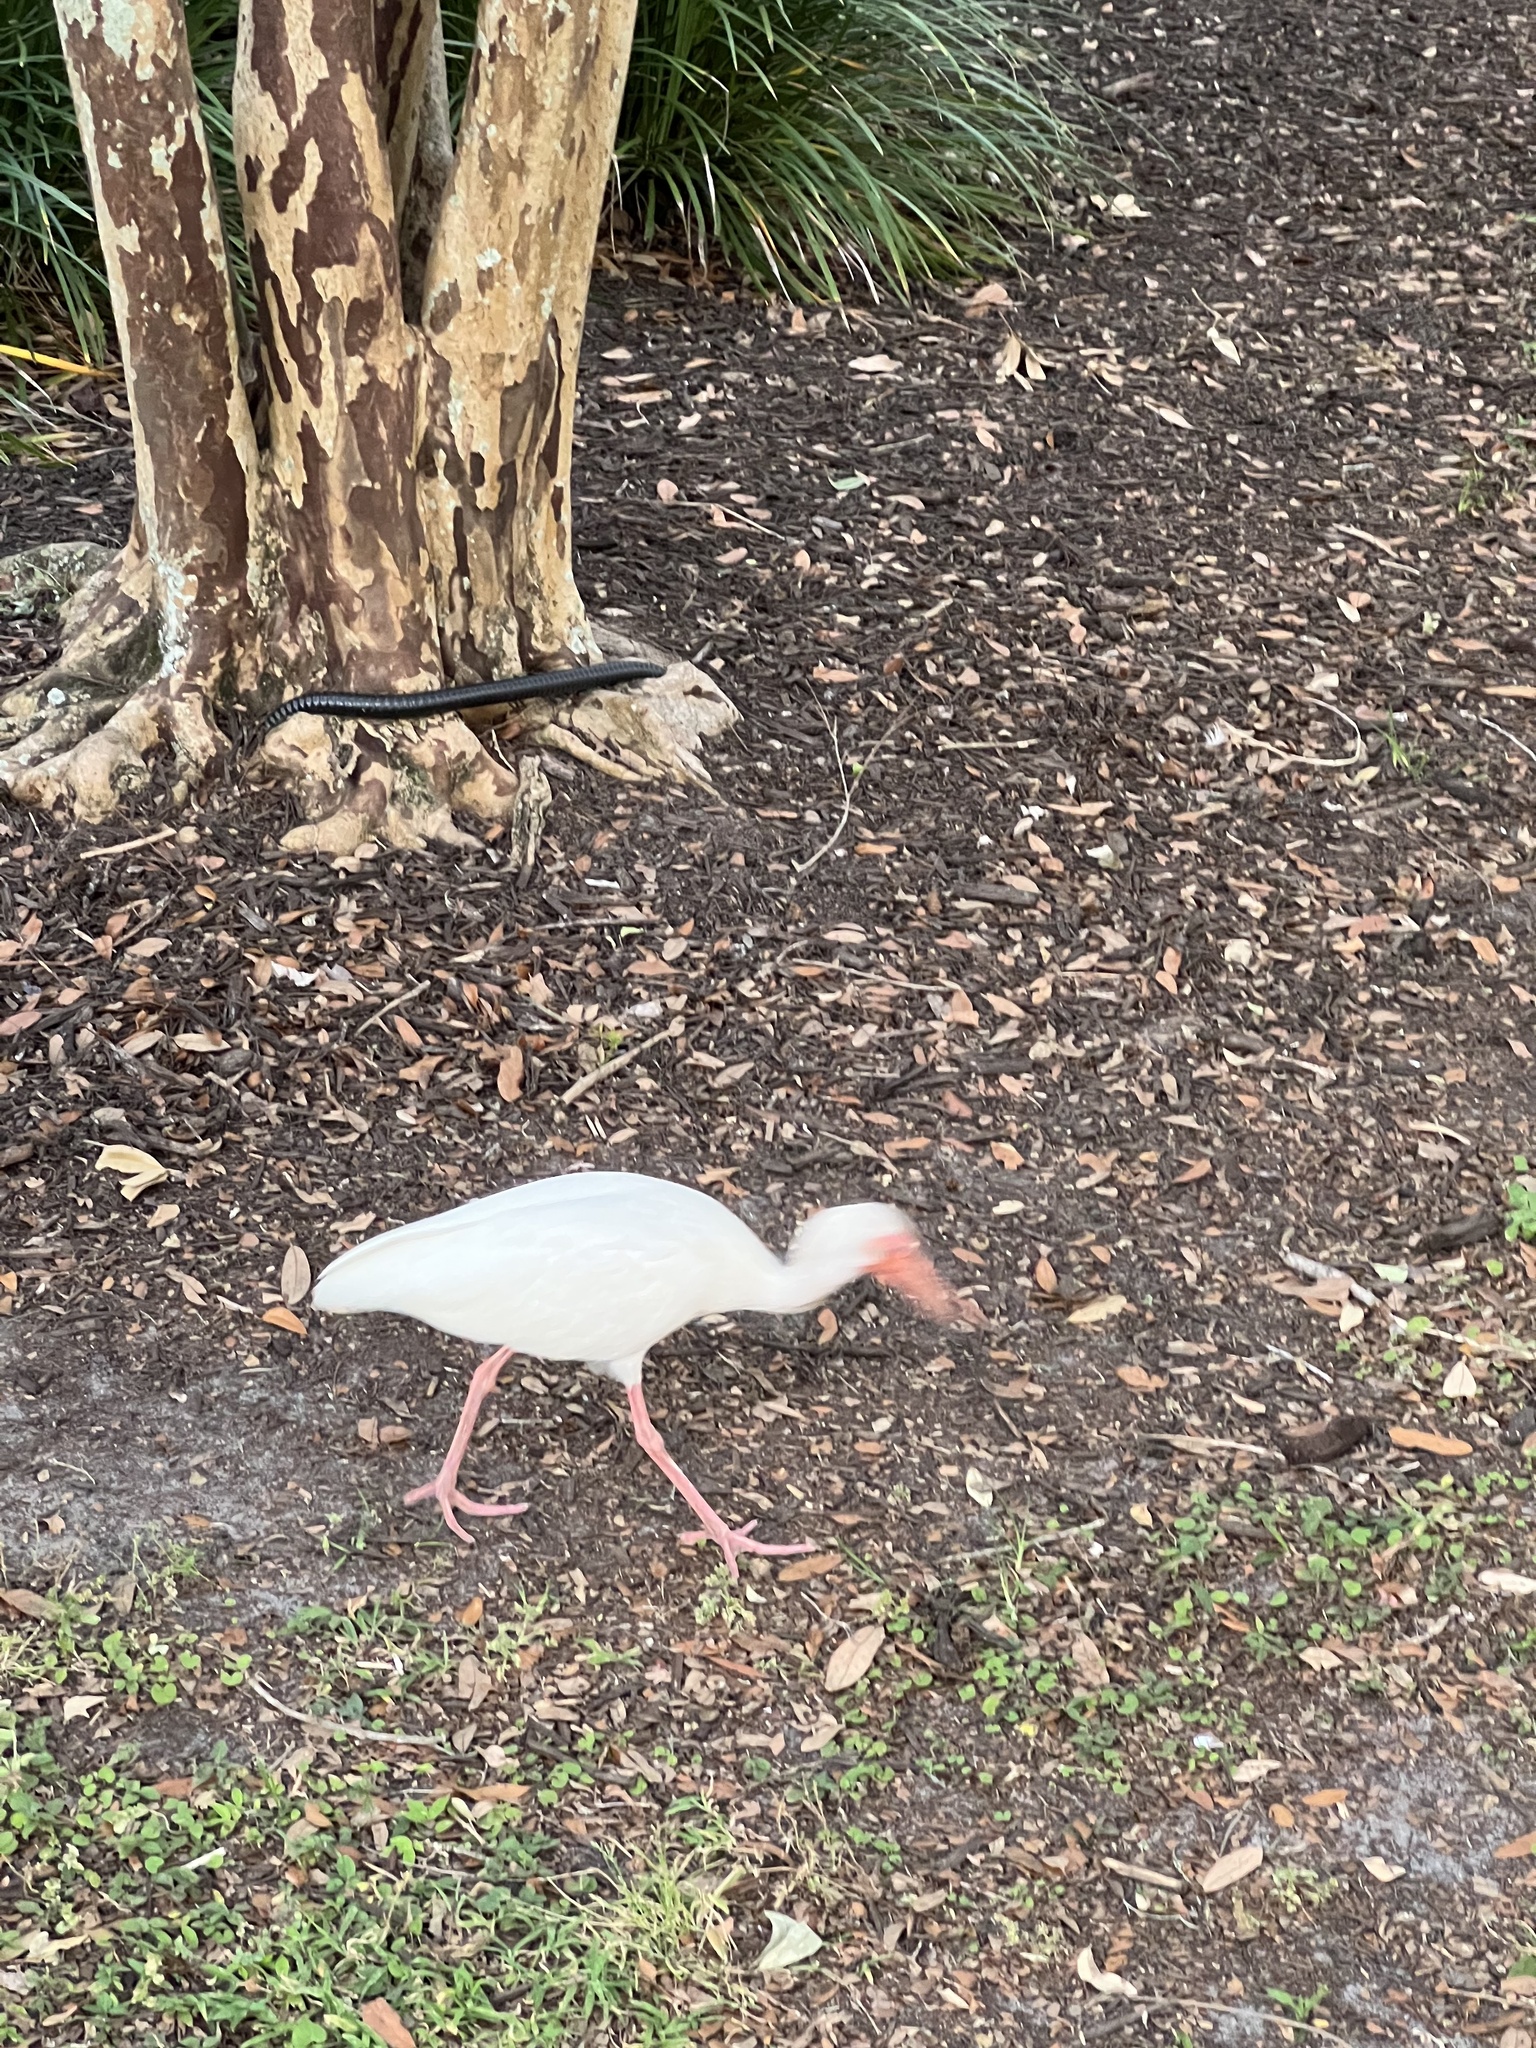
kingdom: Animalia
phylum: Chordata
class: Aves
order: Pelecaniformes
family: Threskiornithidae
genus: Eudocimus
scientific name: Eudocimus albus
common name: White ibis
